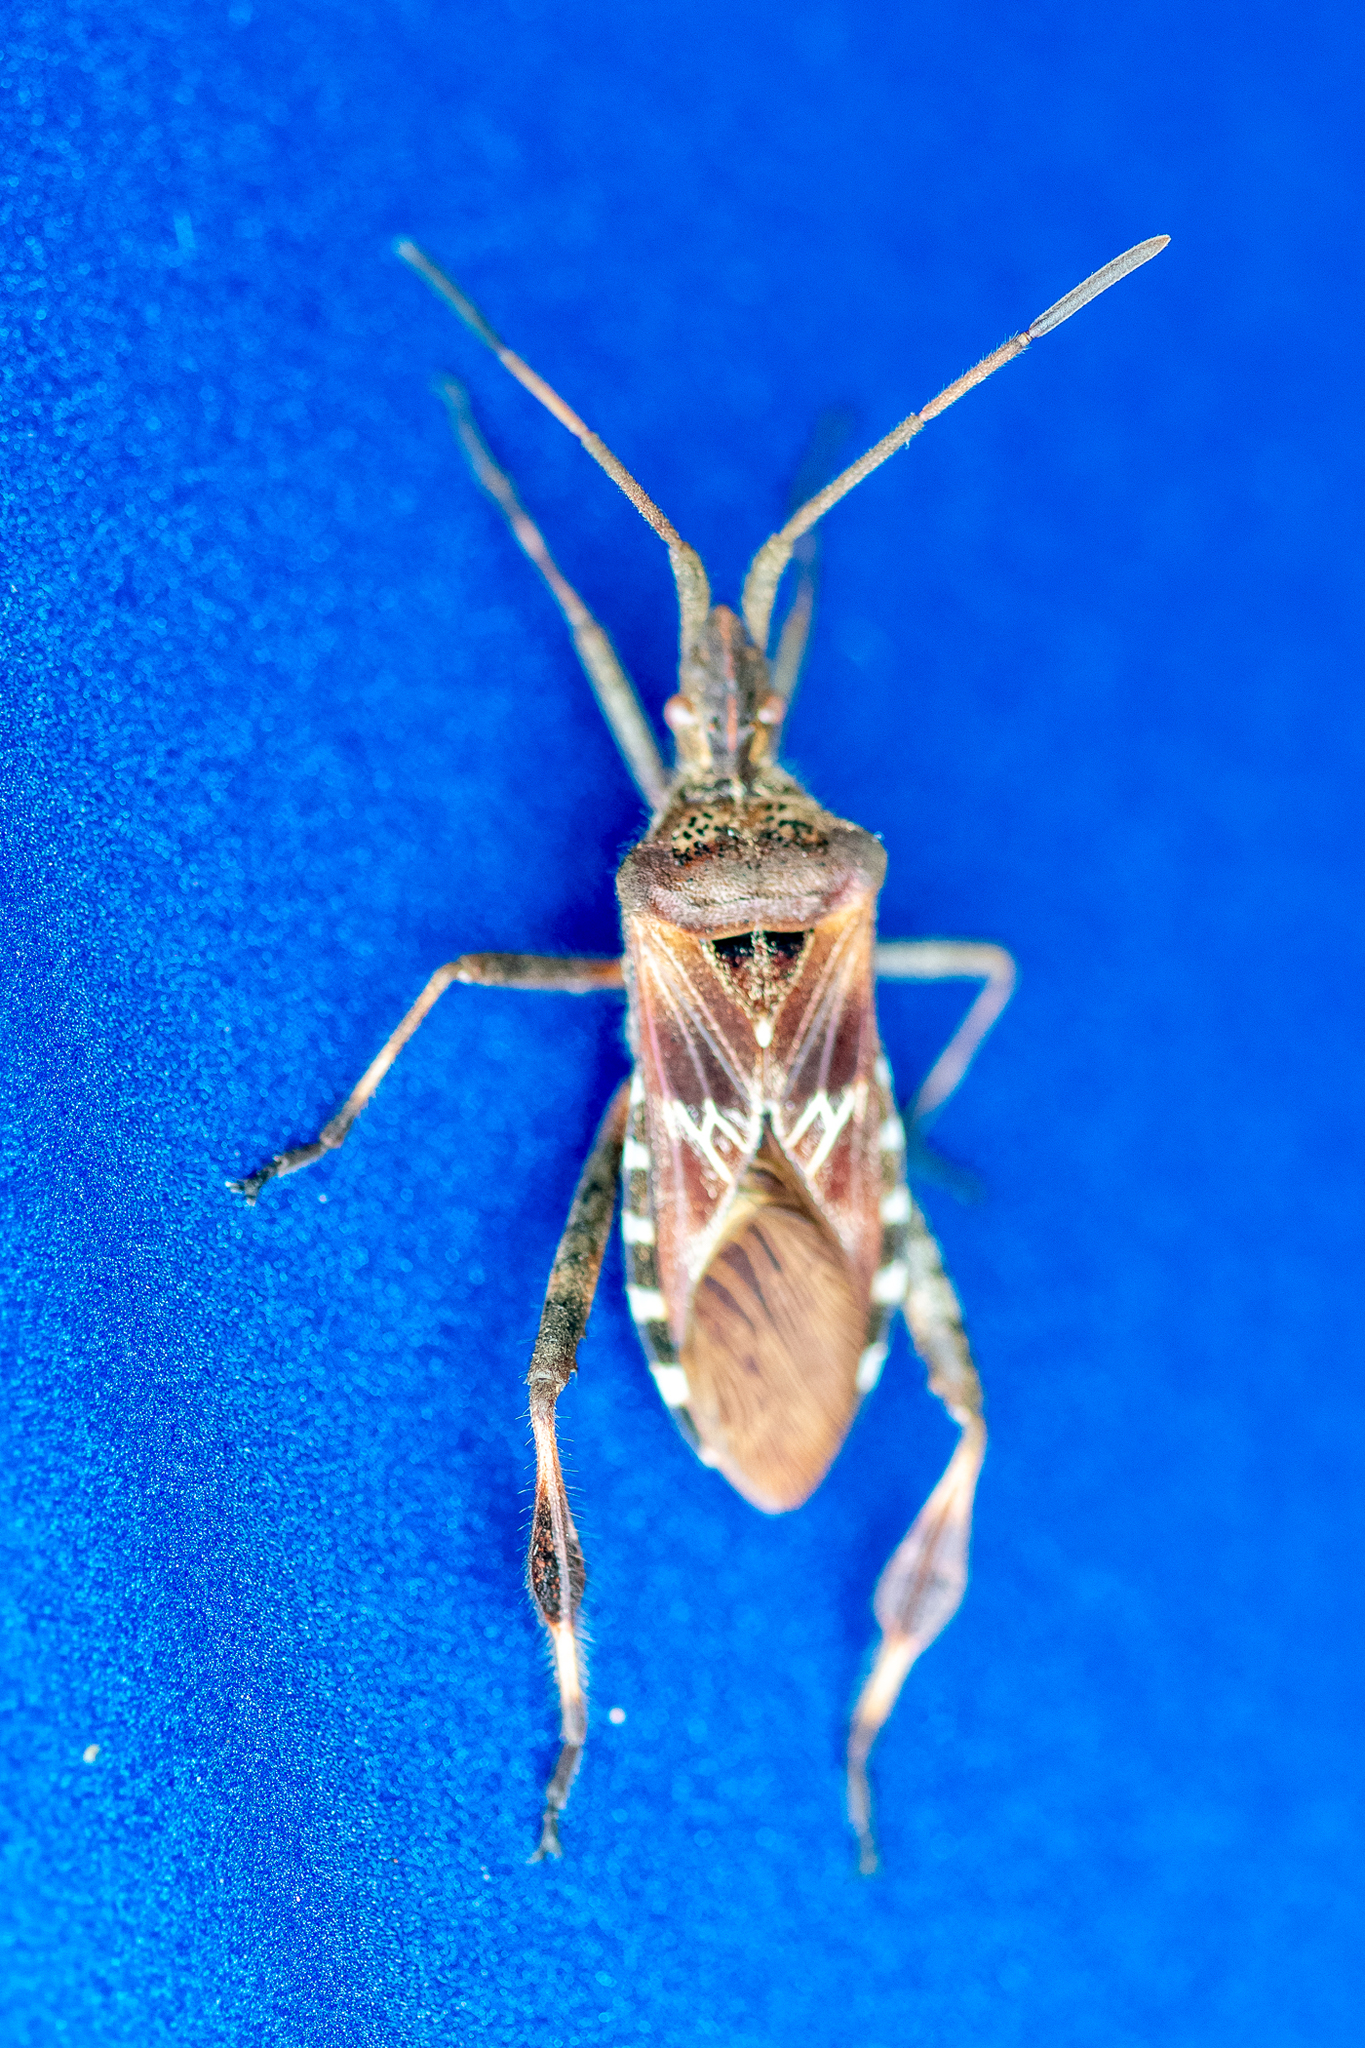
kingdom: Animalia
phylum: Arthropoda
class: Insecta
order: Hemiptera
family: Coreidae
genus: Leptoglossus
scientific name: Leptoglossus occidentalis
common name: Western conifer-seed bug
